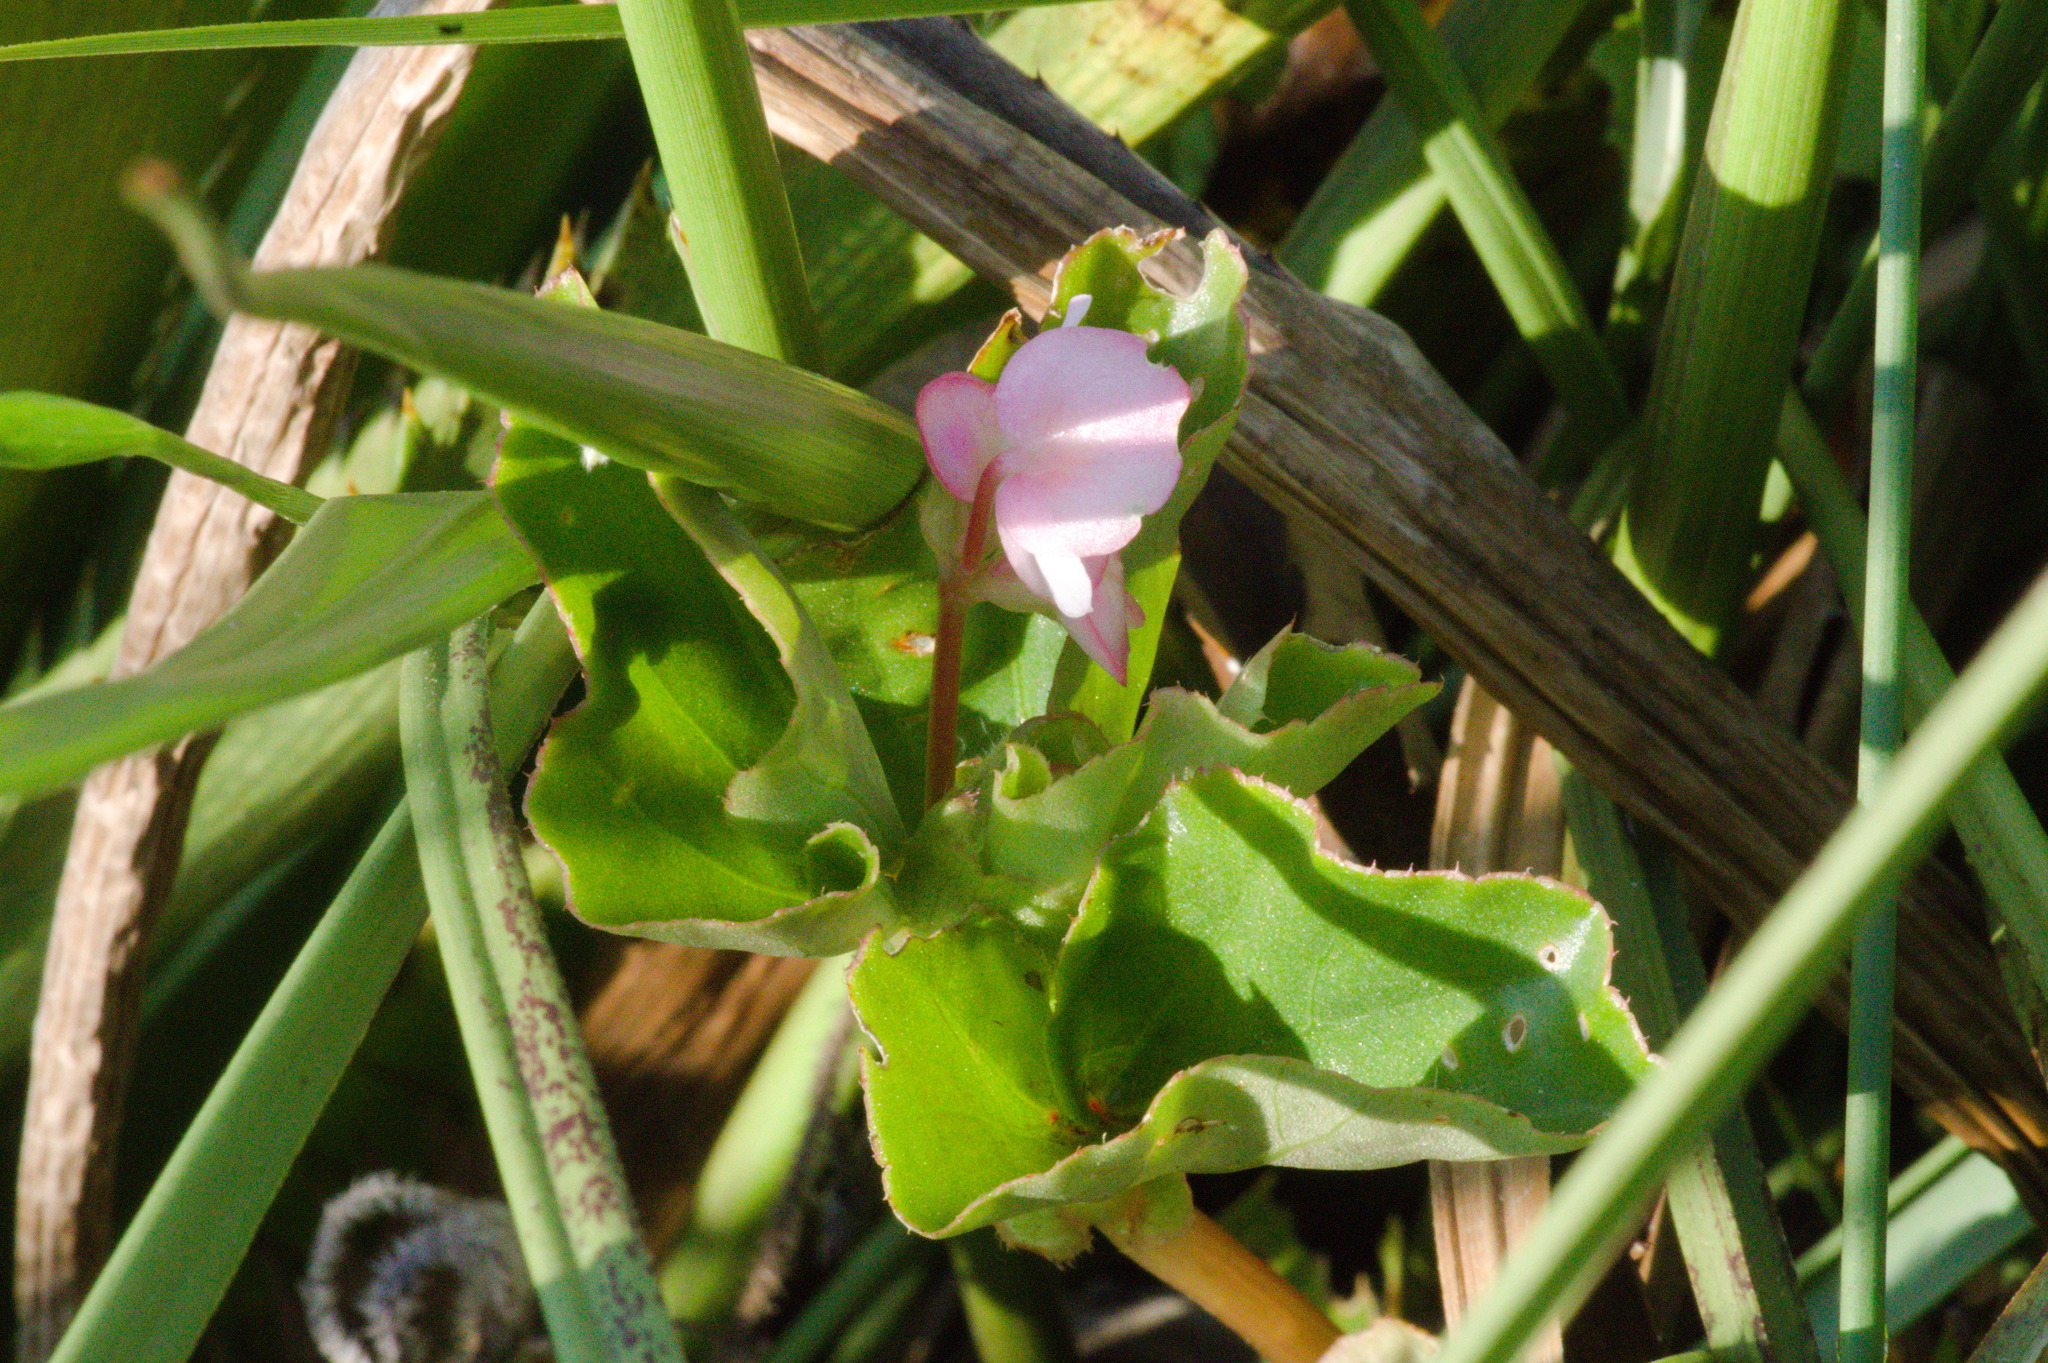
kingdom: Plantae
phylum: Tracheophyta
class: Magnoliopsida
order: Cucurbitales
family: Begoniaceae
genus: Begonia
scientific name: Begonia cucullata
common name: Clubbed begonia
